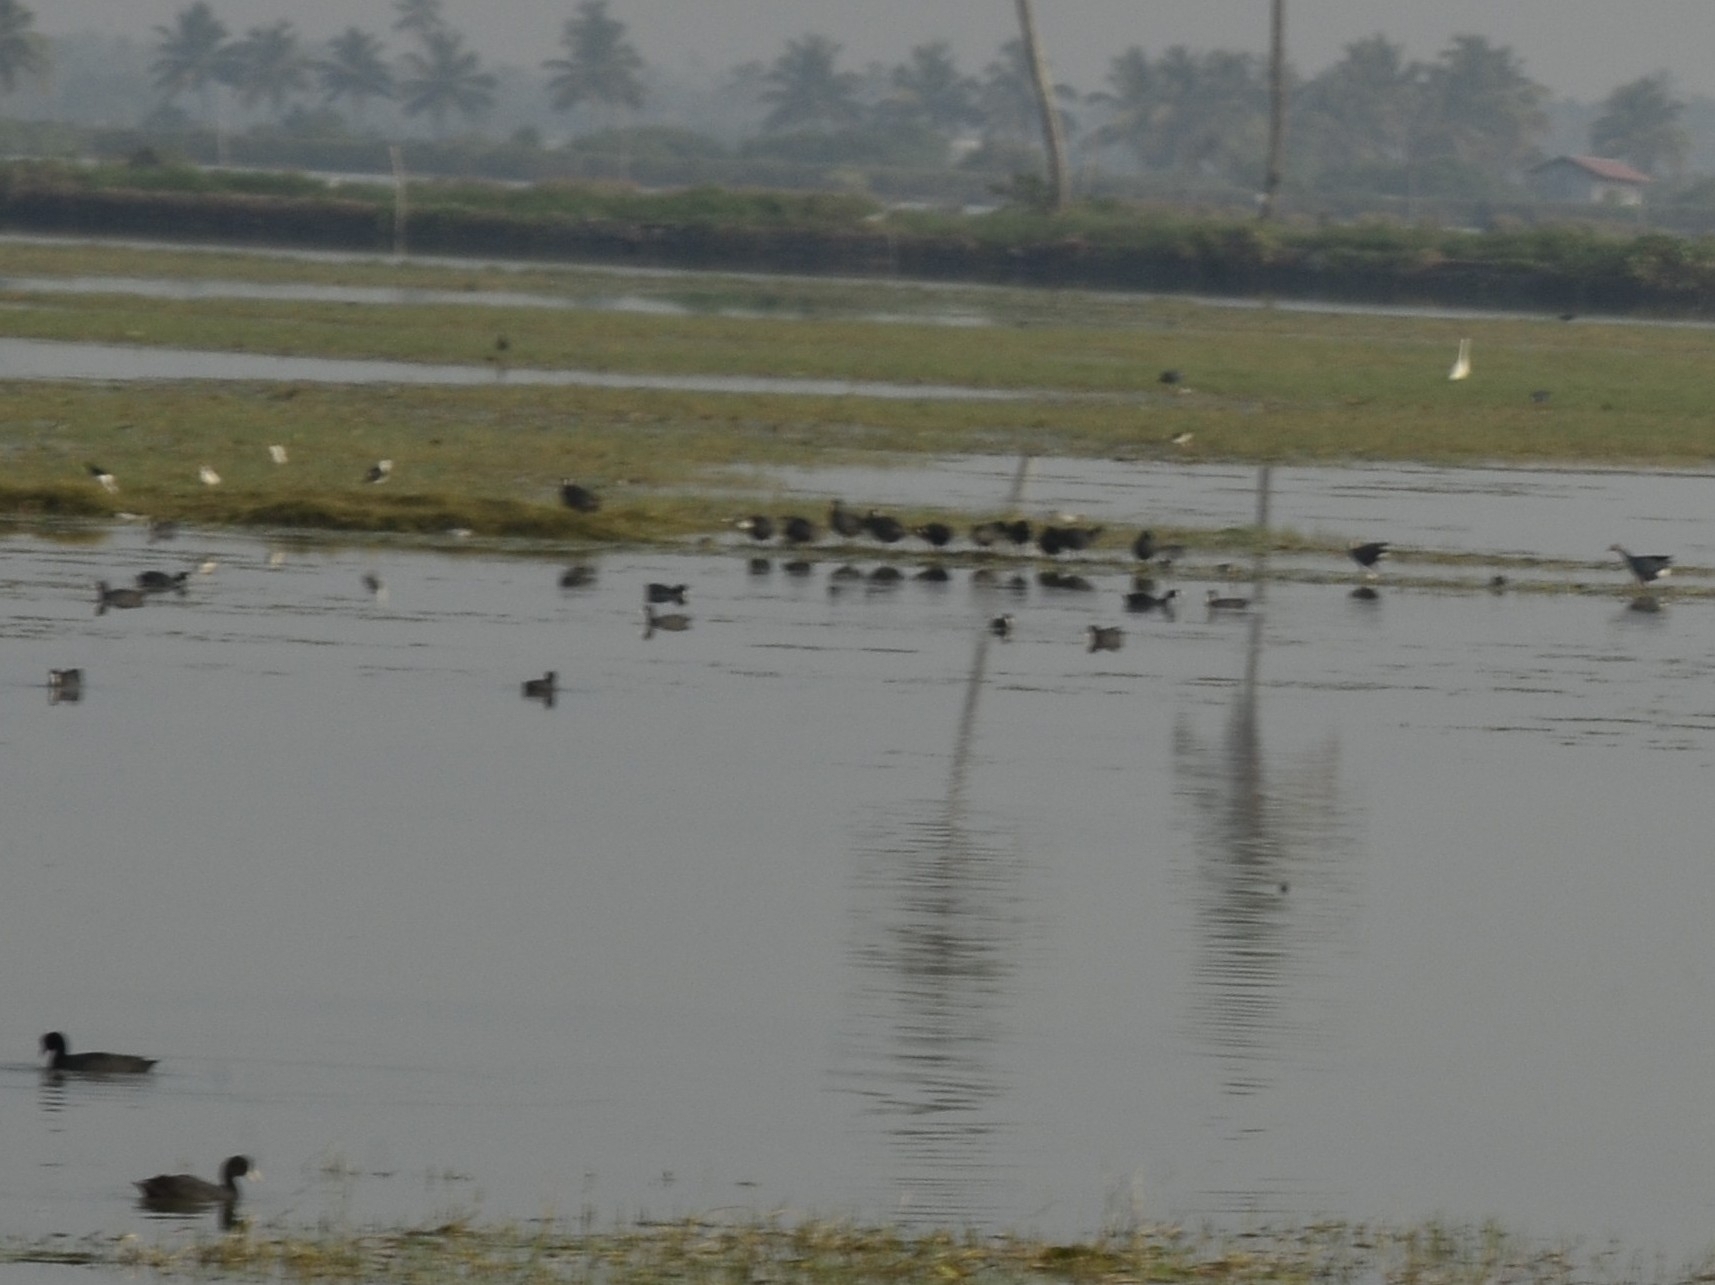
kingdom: Animalia
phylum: Chordata
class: Aves
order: Gruiformes
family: Rallidae
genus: Fulica
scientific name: Fulica atra
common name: Eurasian coot
